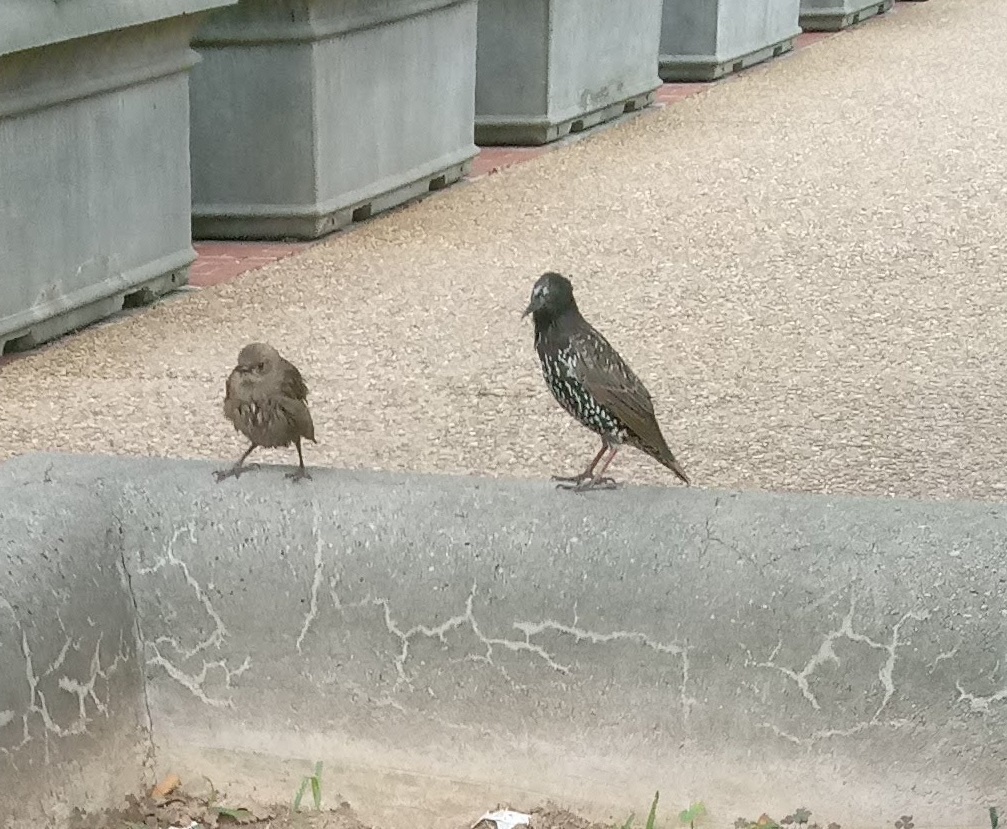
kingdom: Animalia
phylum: Chordata
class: Aves
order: Passeriformes
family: Sturnidae
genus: Sturnus
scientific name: Sturnus vulgaris
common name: Common starling
